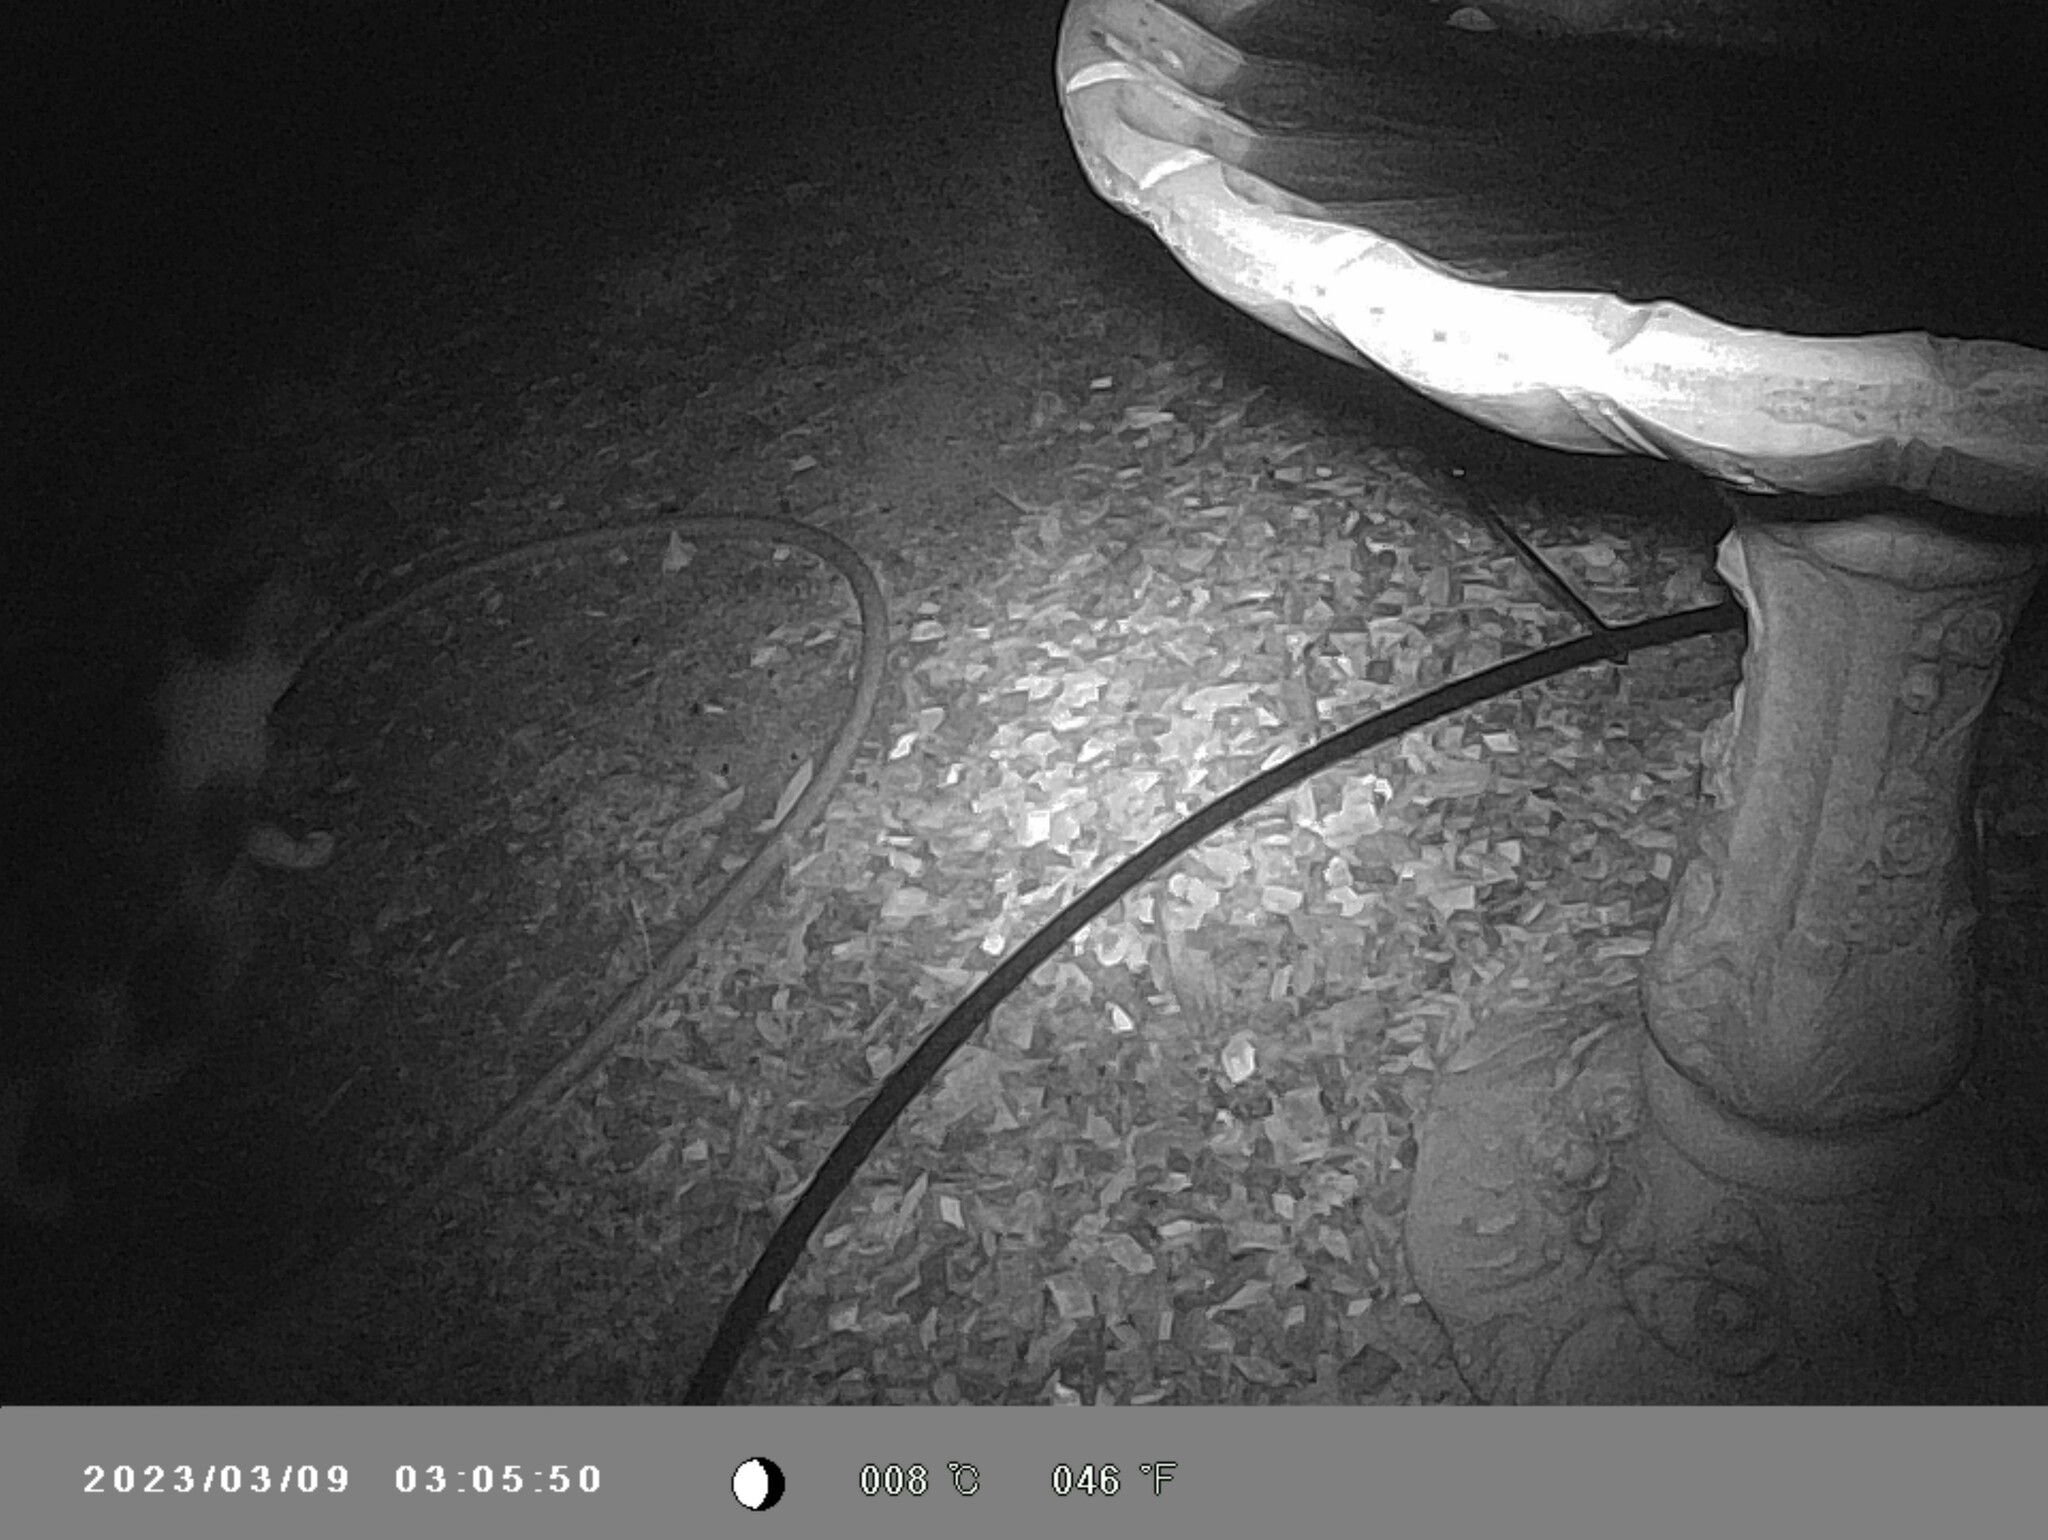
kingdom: Animalia
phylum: Chordata
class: Mammalia
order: Carnivora
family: Felidae
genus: Felis
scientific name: Felis catus
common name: Domestic cat
